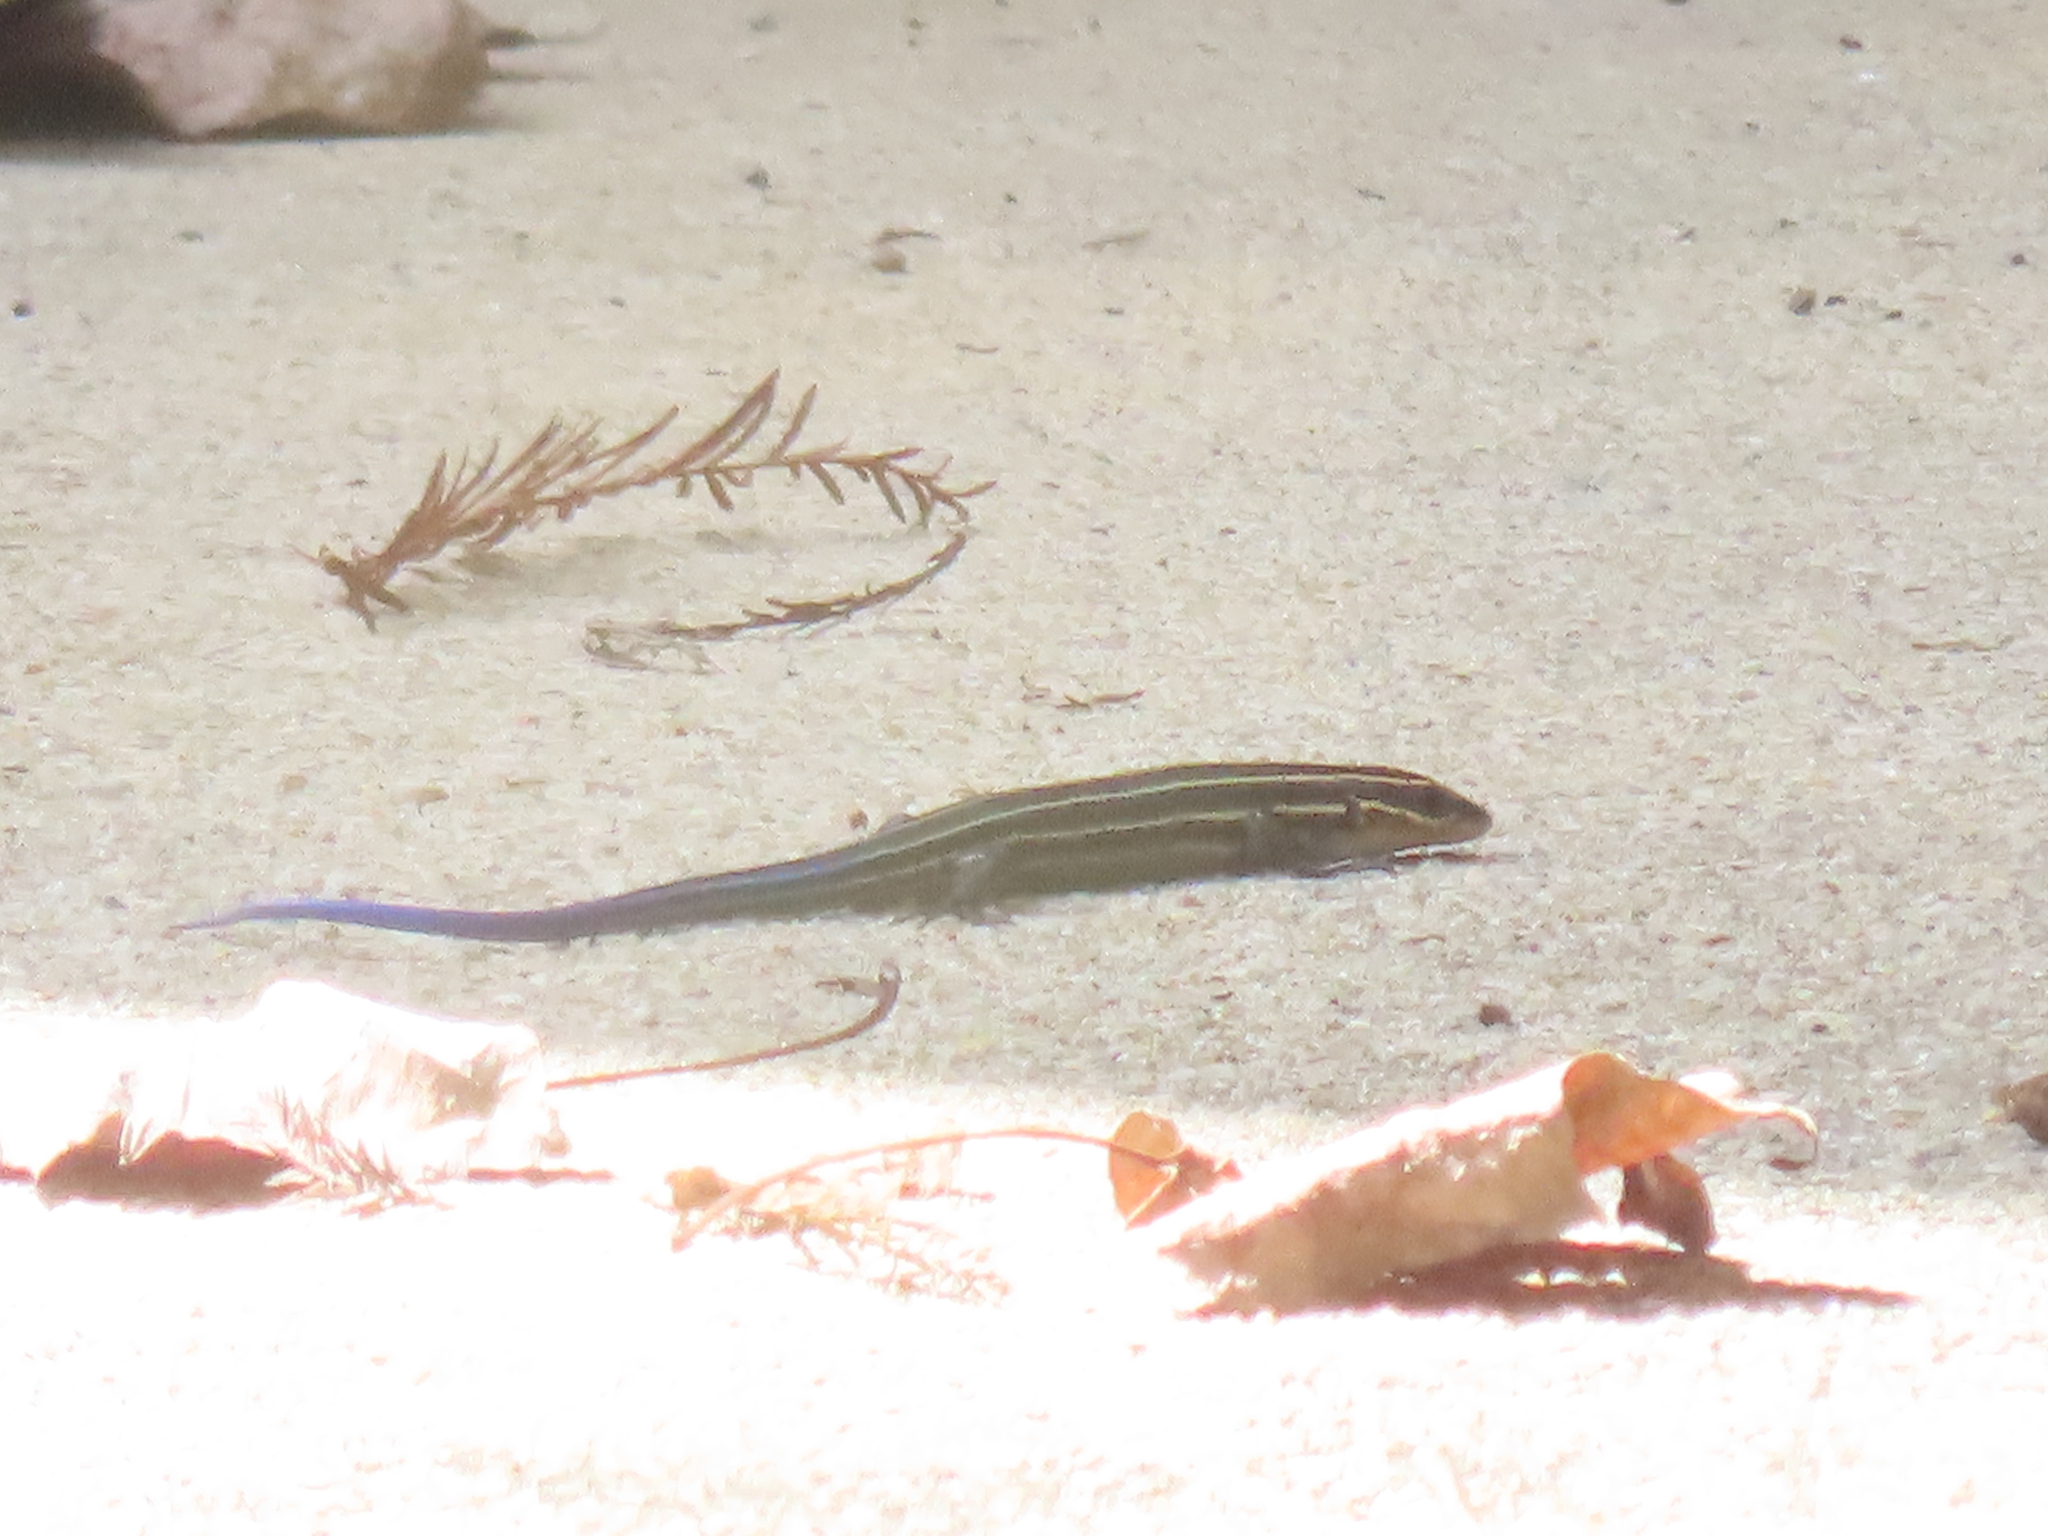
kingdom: Animalia
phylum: Chordata
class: Squamata
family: Scincidae
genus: Plestiodon
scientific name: Plestiodon laticeps
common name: Broadhead skink
